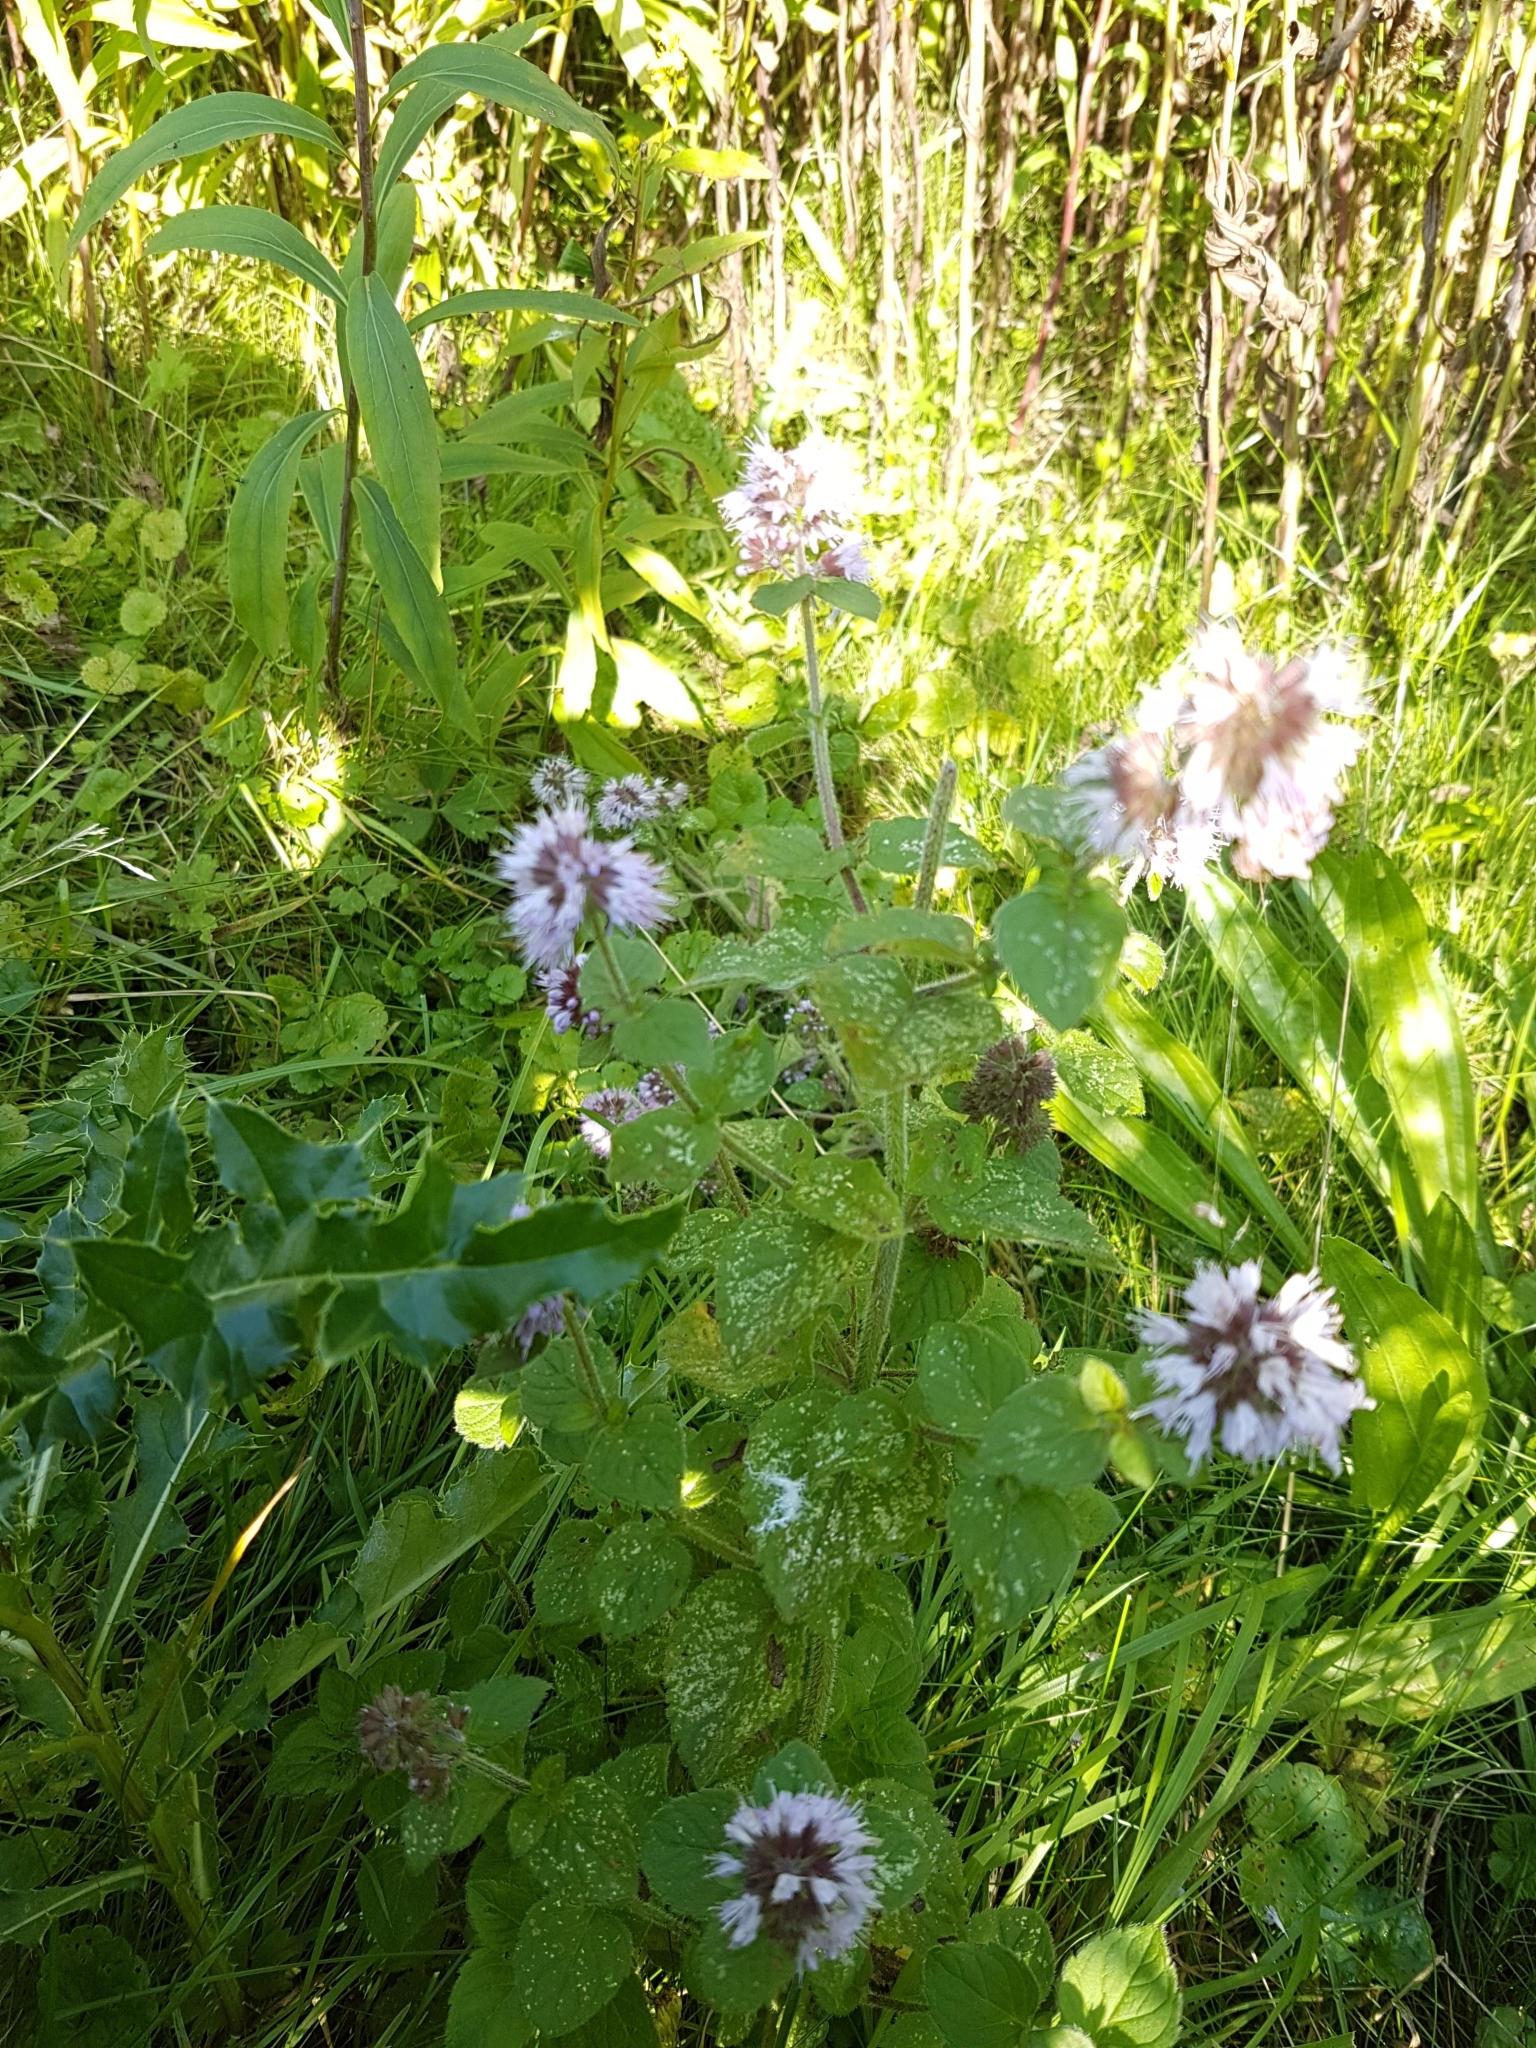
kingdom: Plantae
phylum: Tracheophyta
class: Magnoliopsida
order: Lamiales
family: Lamiaceae
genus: Mentha
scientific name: Mentha aquatica
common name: Water mint
